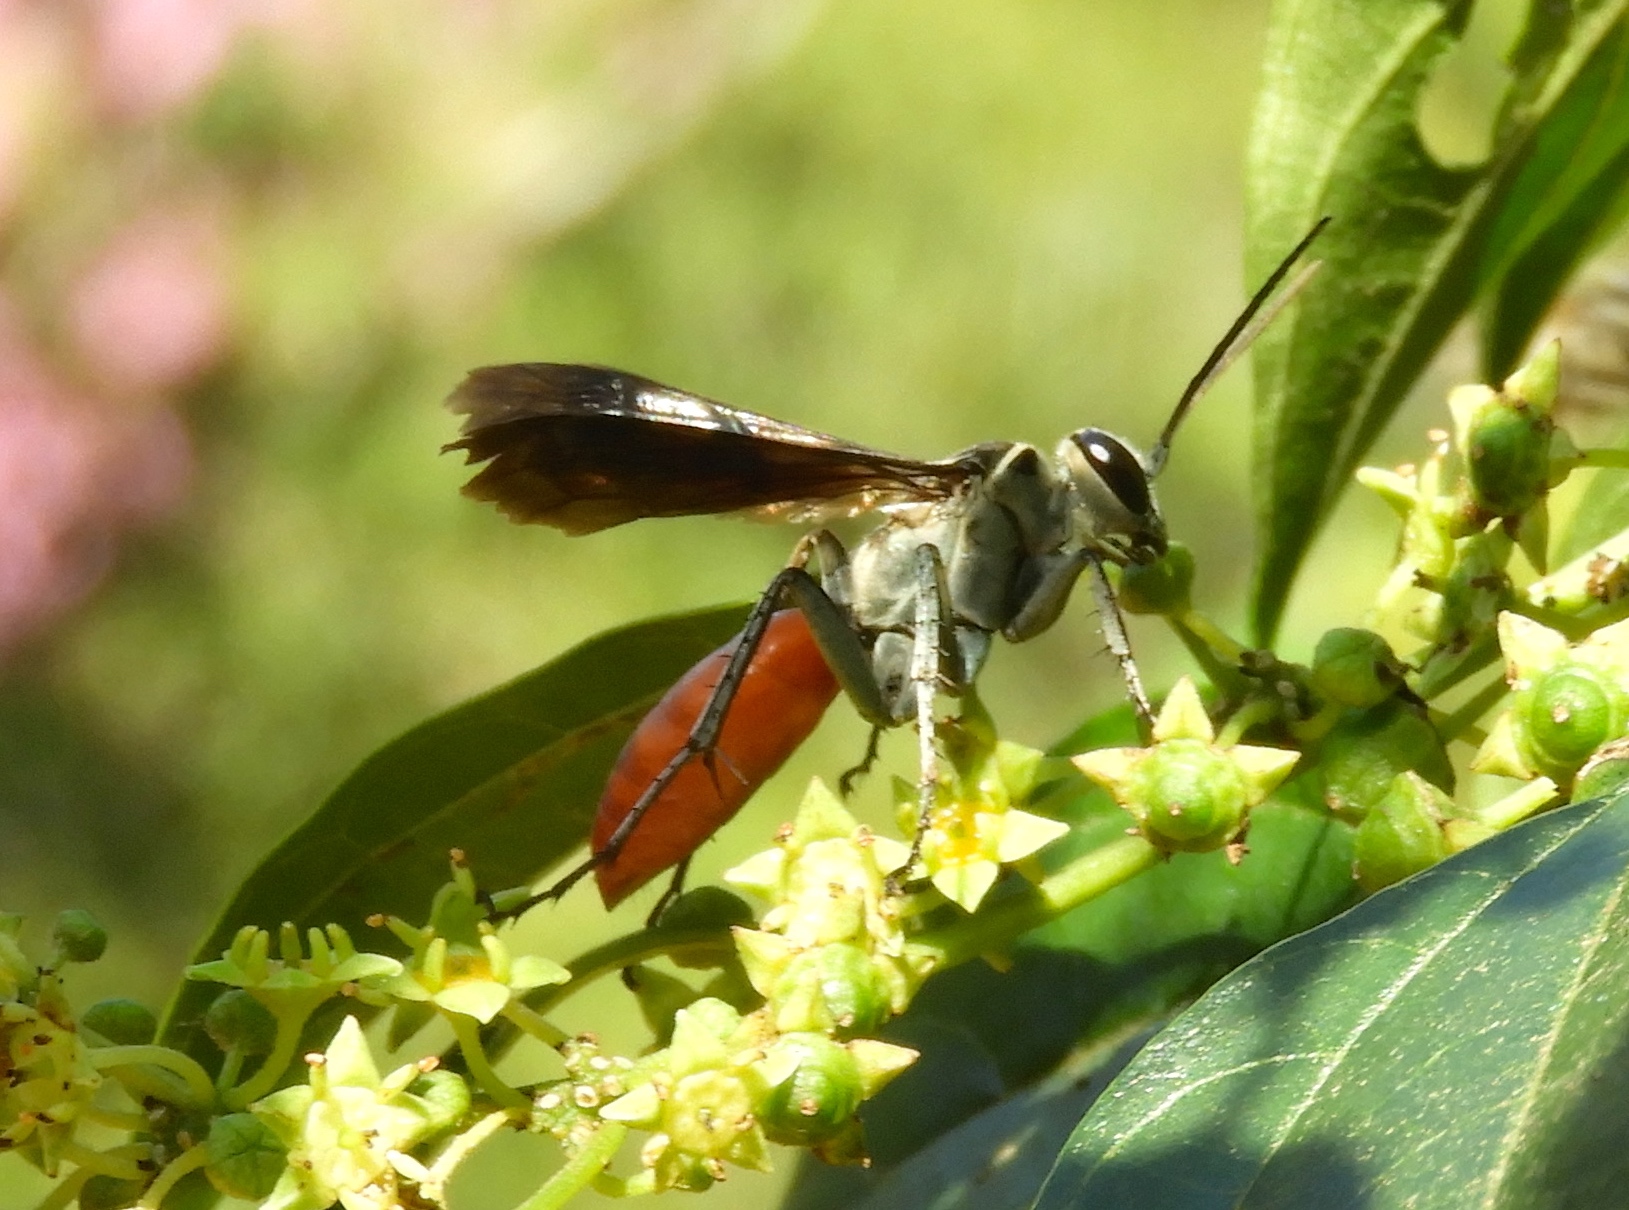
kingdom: Animalia
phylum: Arthropoda
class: Insecta
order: Hymenoptera
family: Pompilidae
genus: Xerochares
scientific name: Xerochares expulsus
